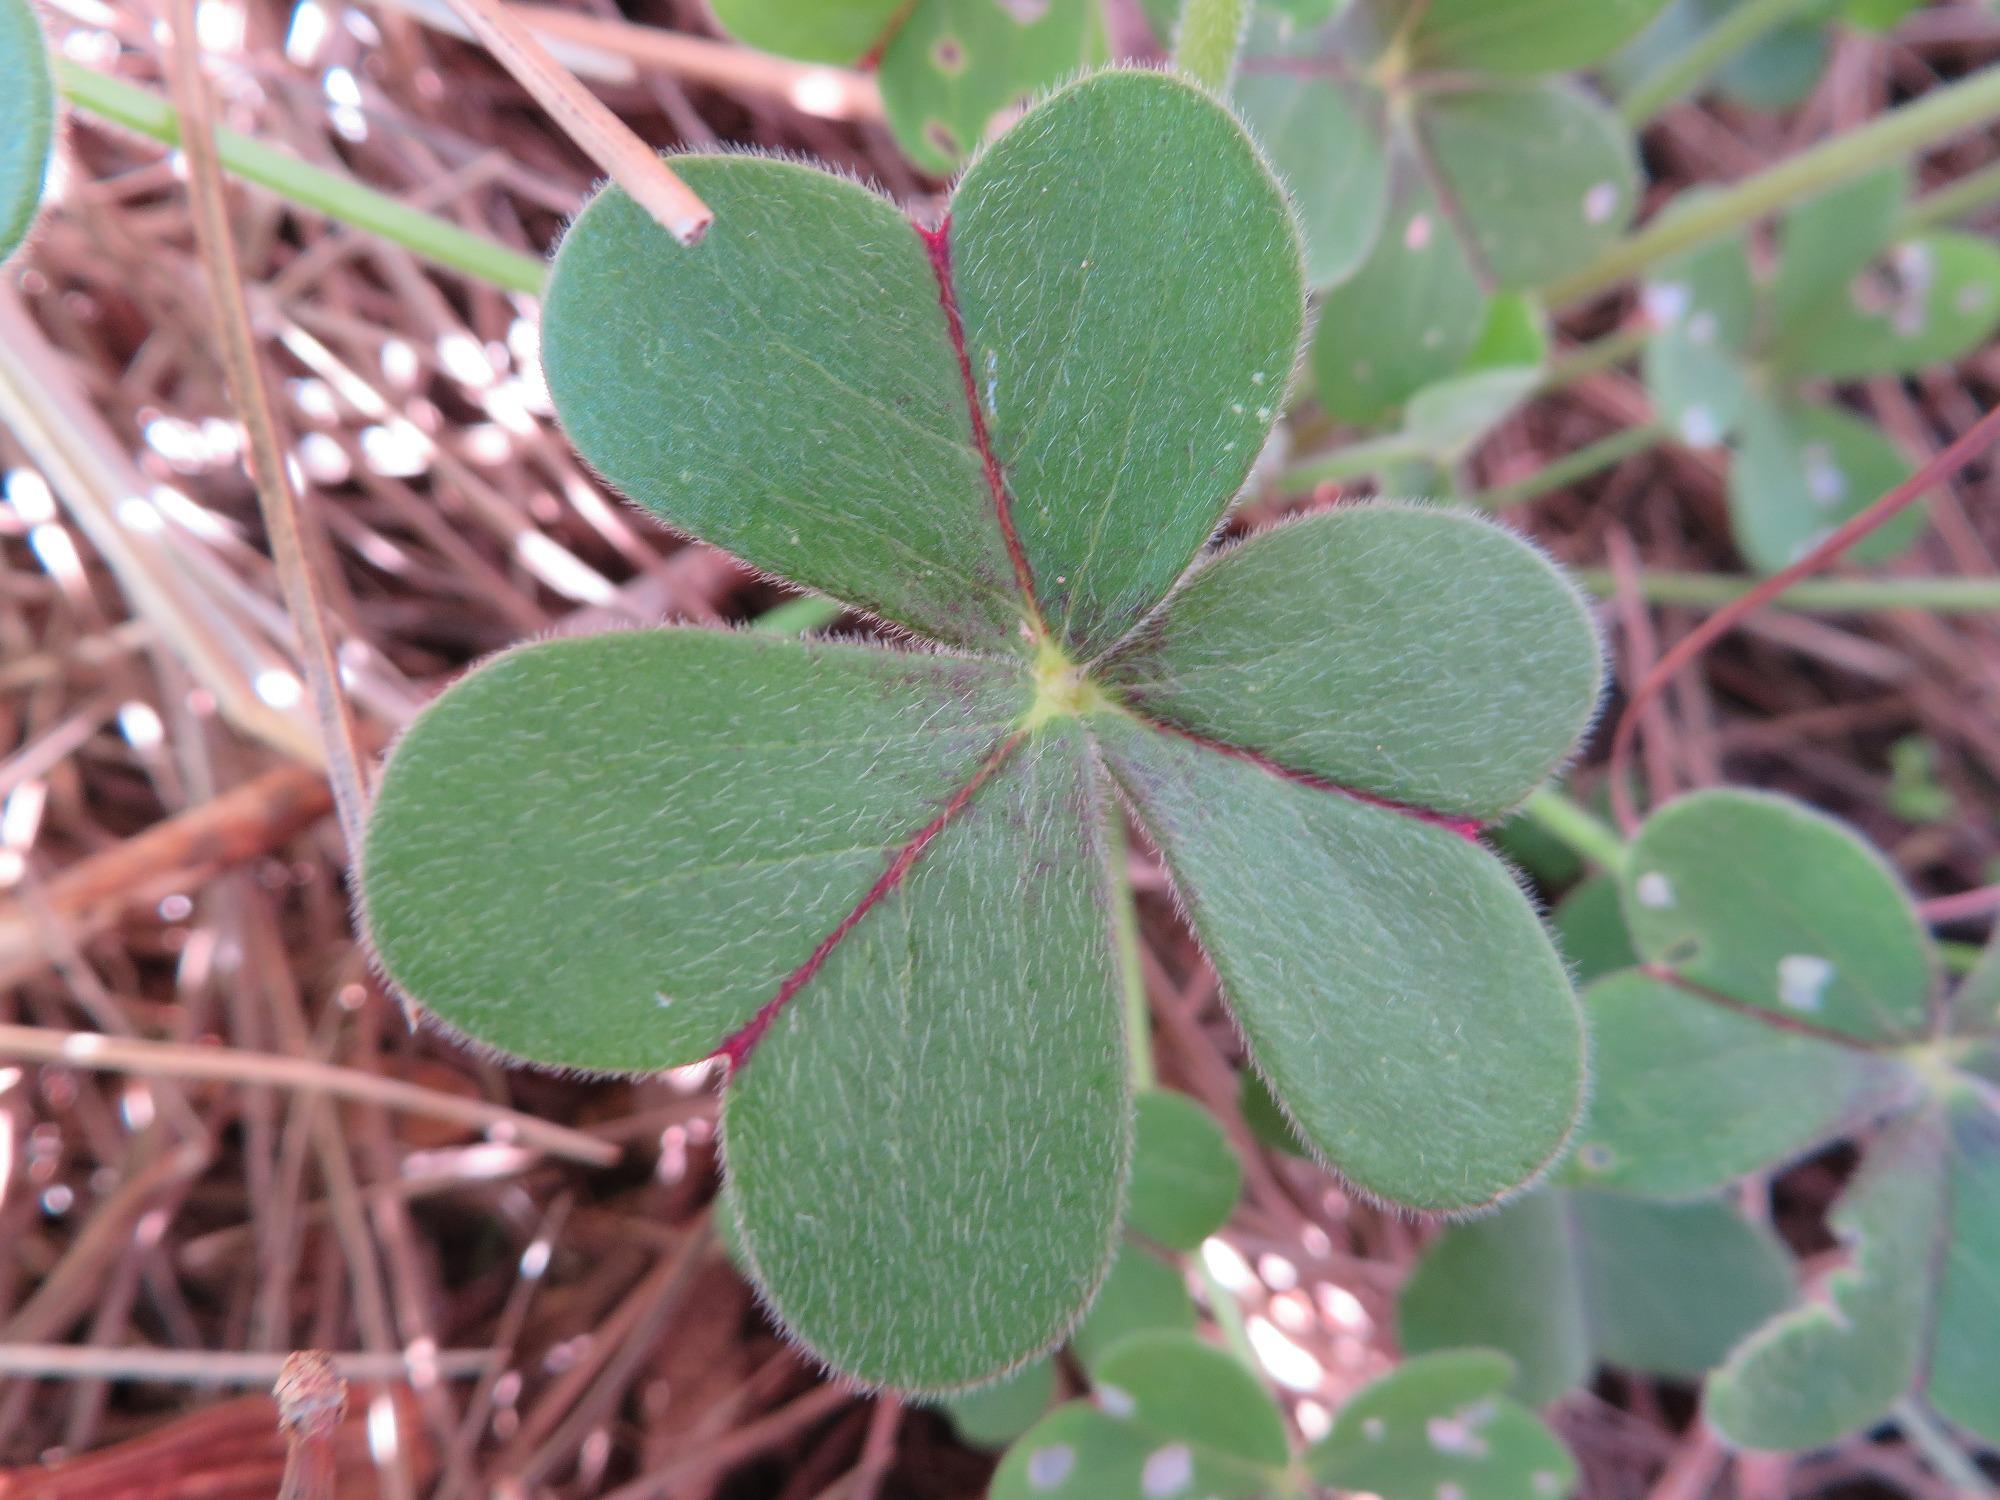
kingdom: Plantae
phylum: Tracheophyta
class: Magnoliopsida
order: Oxalidales
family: Oxalidaceae
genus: Oxalis
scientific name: Oxalis pes-caprae
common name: Bermuda-buttercup
